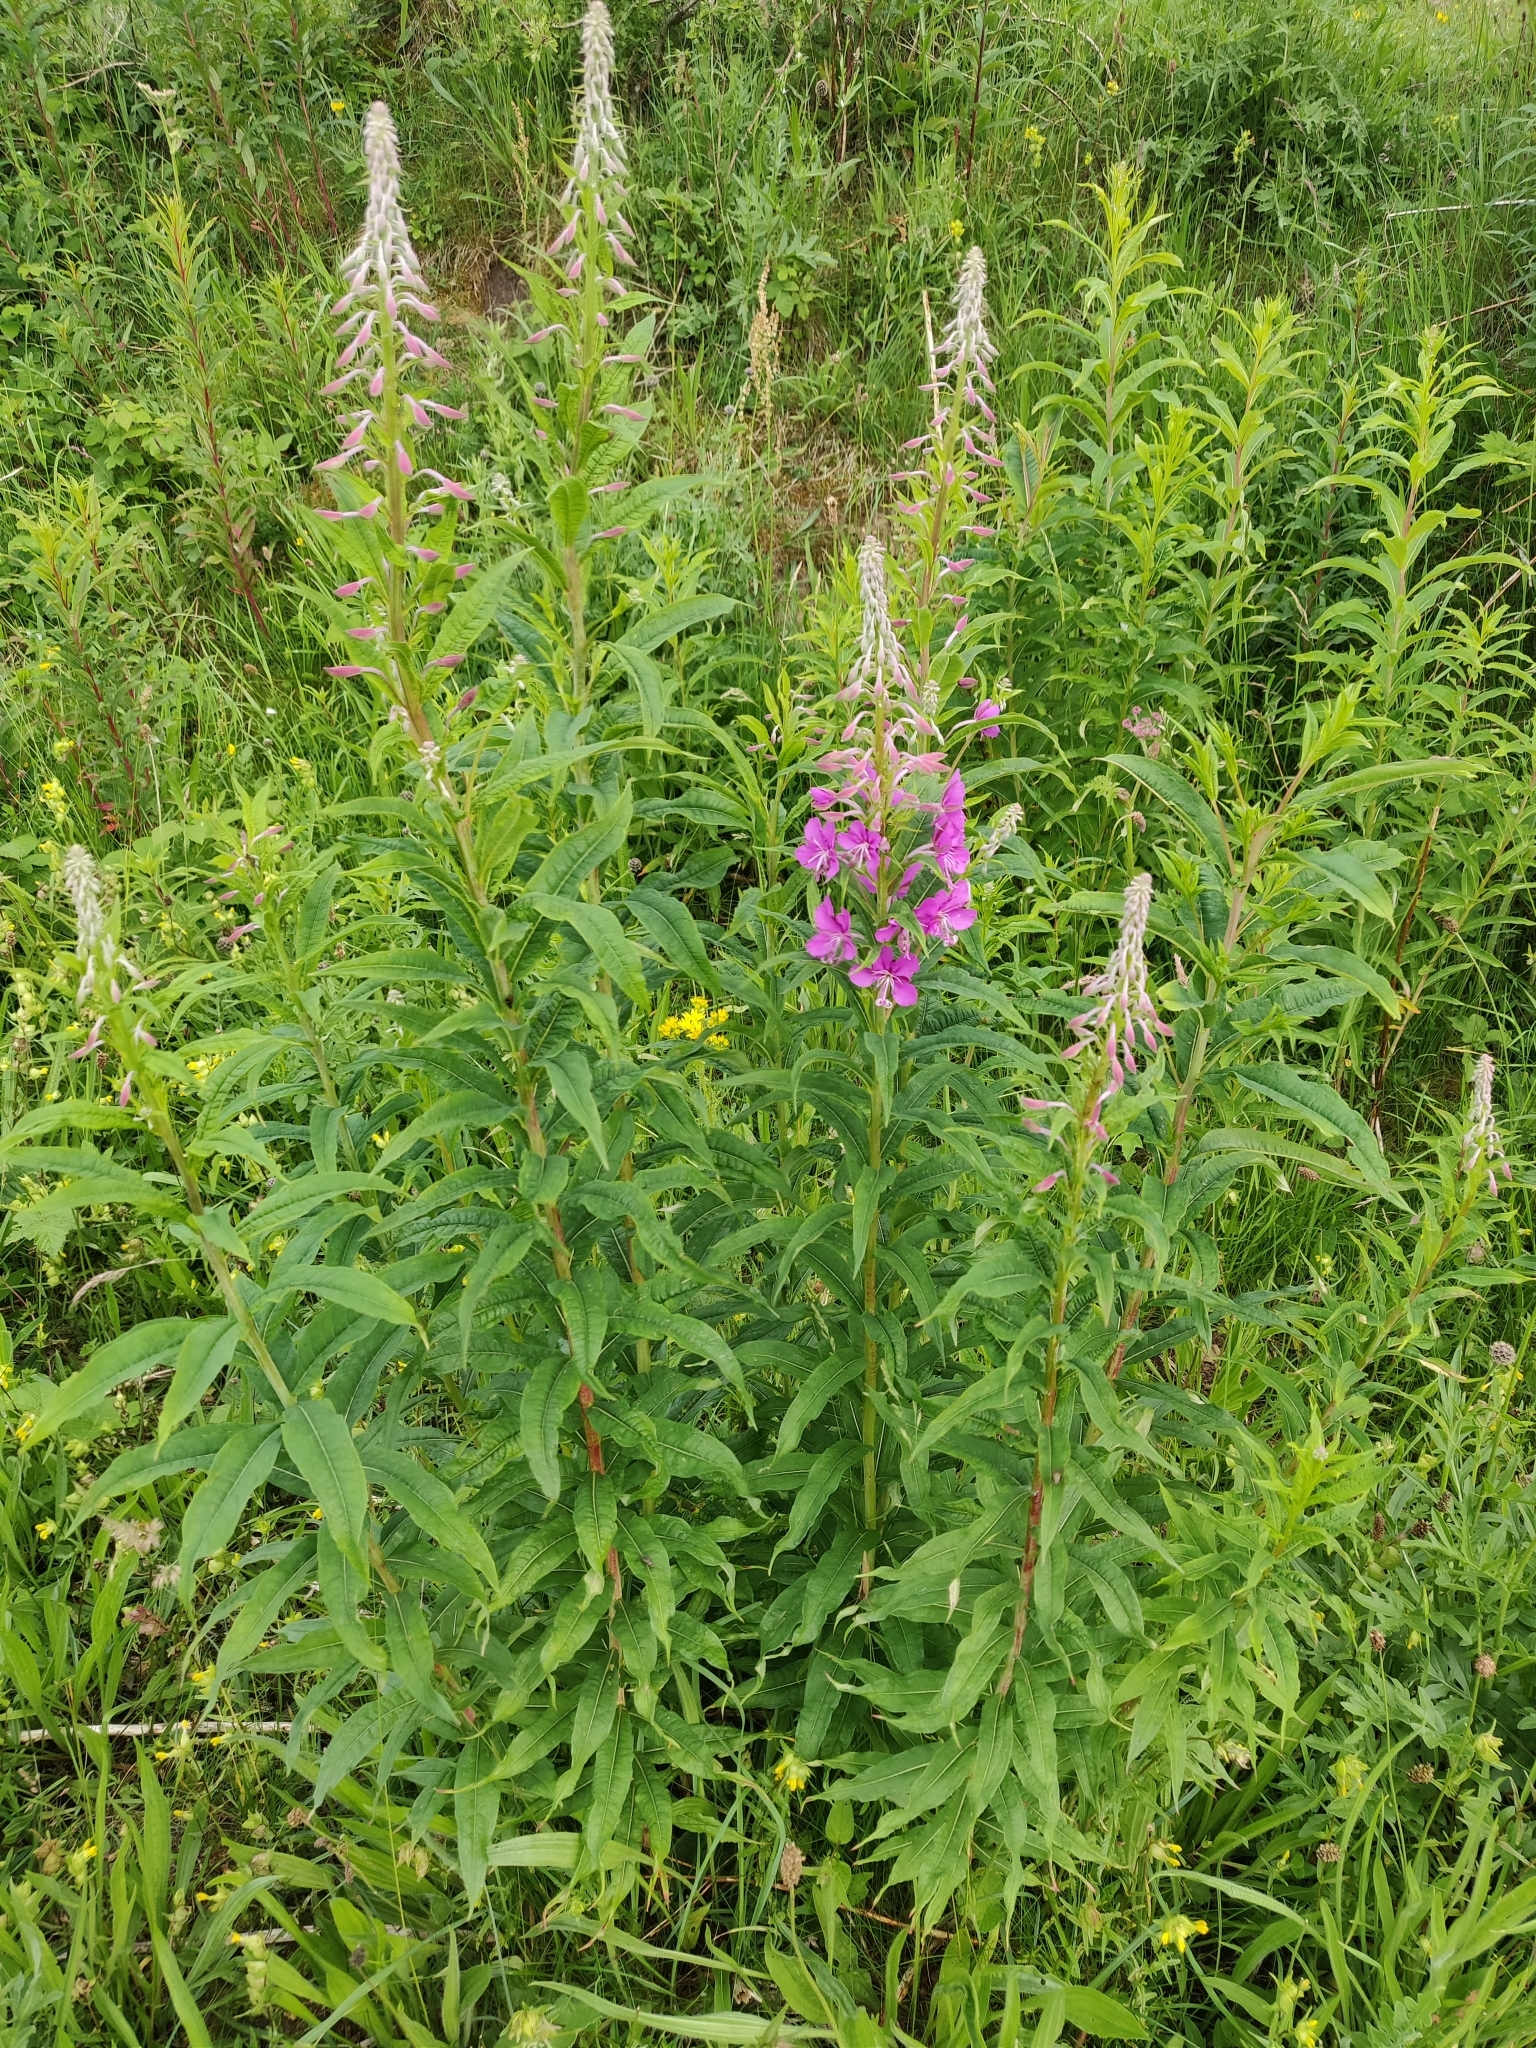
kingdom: Plantae
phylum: Tracheophyta
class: Magnoliopsida
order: Myrtales
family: Onagraceae
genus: Chamaenerion
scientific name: Chamaenerion angustifolium
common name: Fireweed
